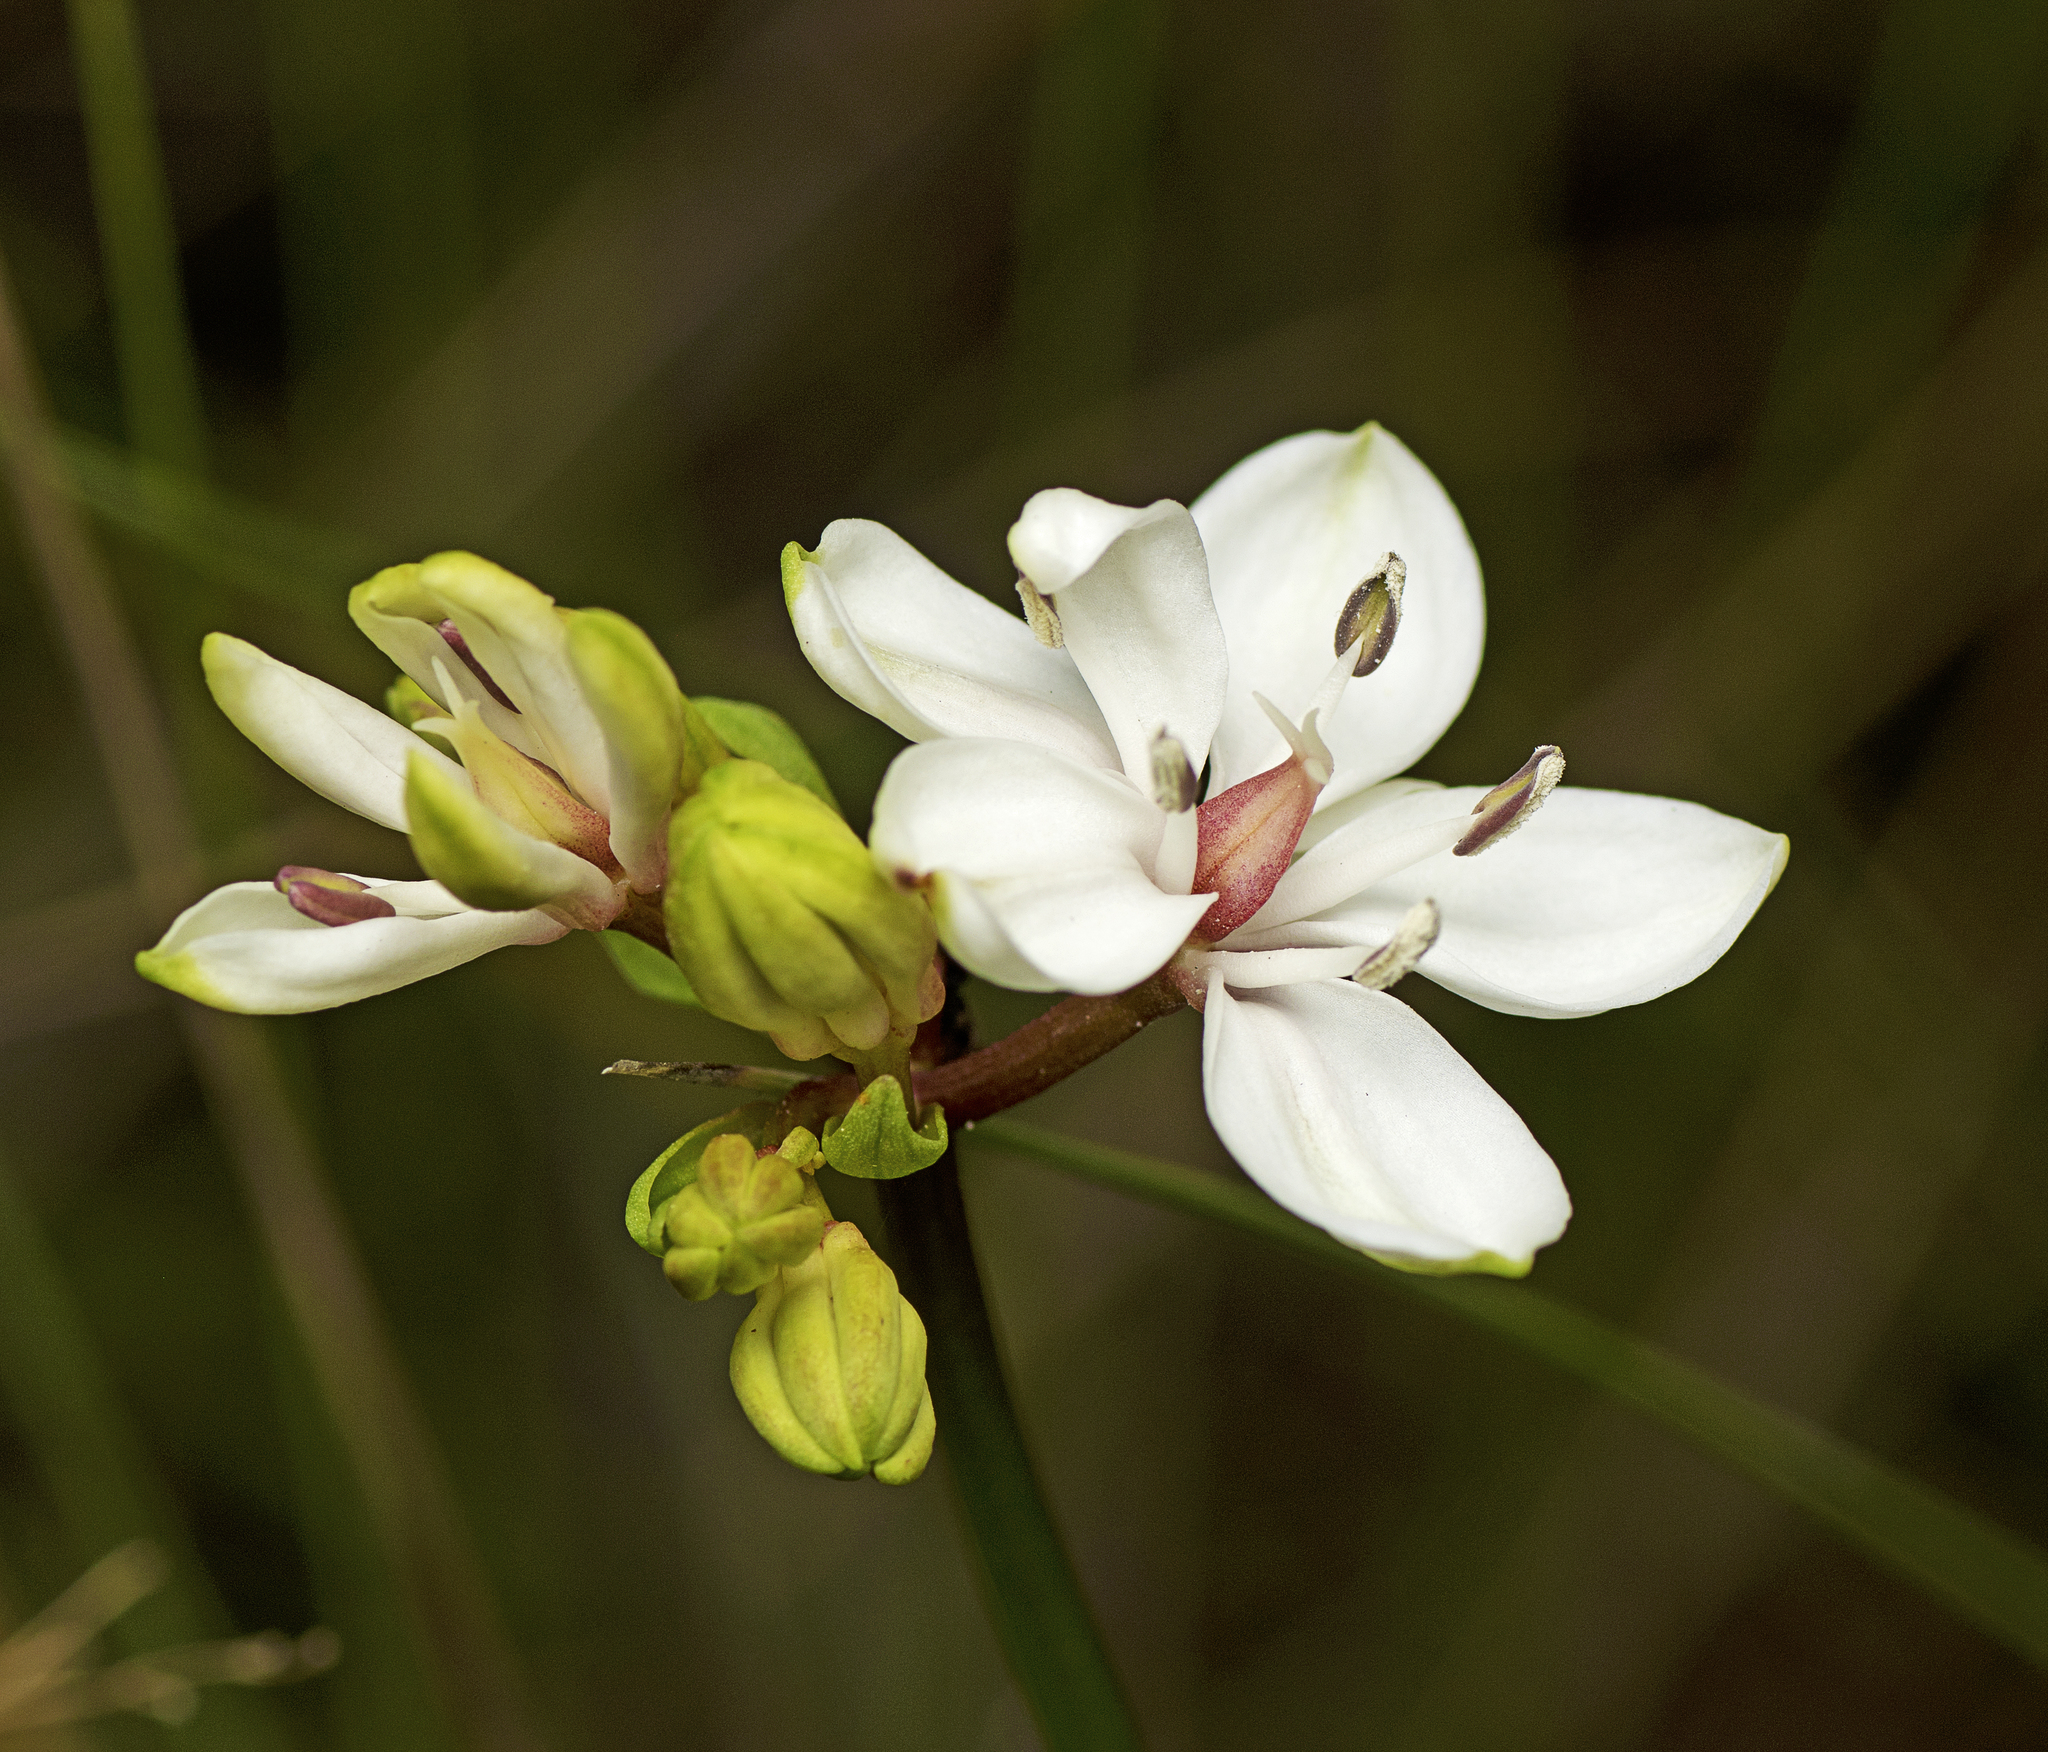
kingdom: Plantae
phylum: Tracheophyta
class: Liliopsida
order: Liliales
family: Colchicaceae
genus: Burchardia
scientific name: Burchardia umbellata
